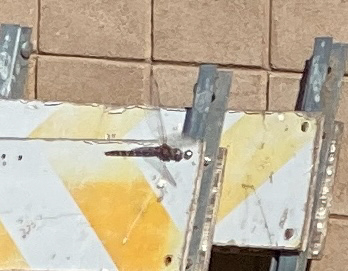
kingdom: Animalia
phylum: Arthropoda
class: Insecta
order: Odonata
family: Libellulidae
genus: Paltothemis
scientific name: Paltothemis lineatipes
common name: Red rock skimmer
